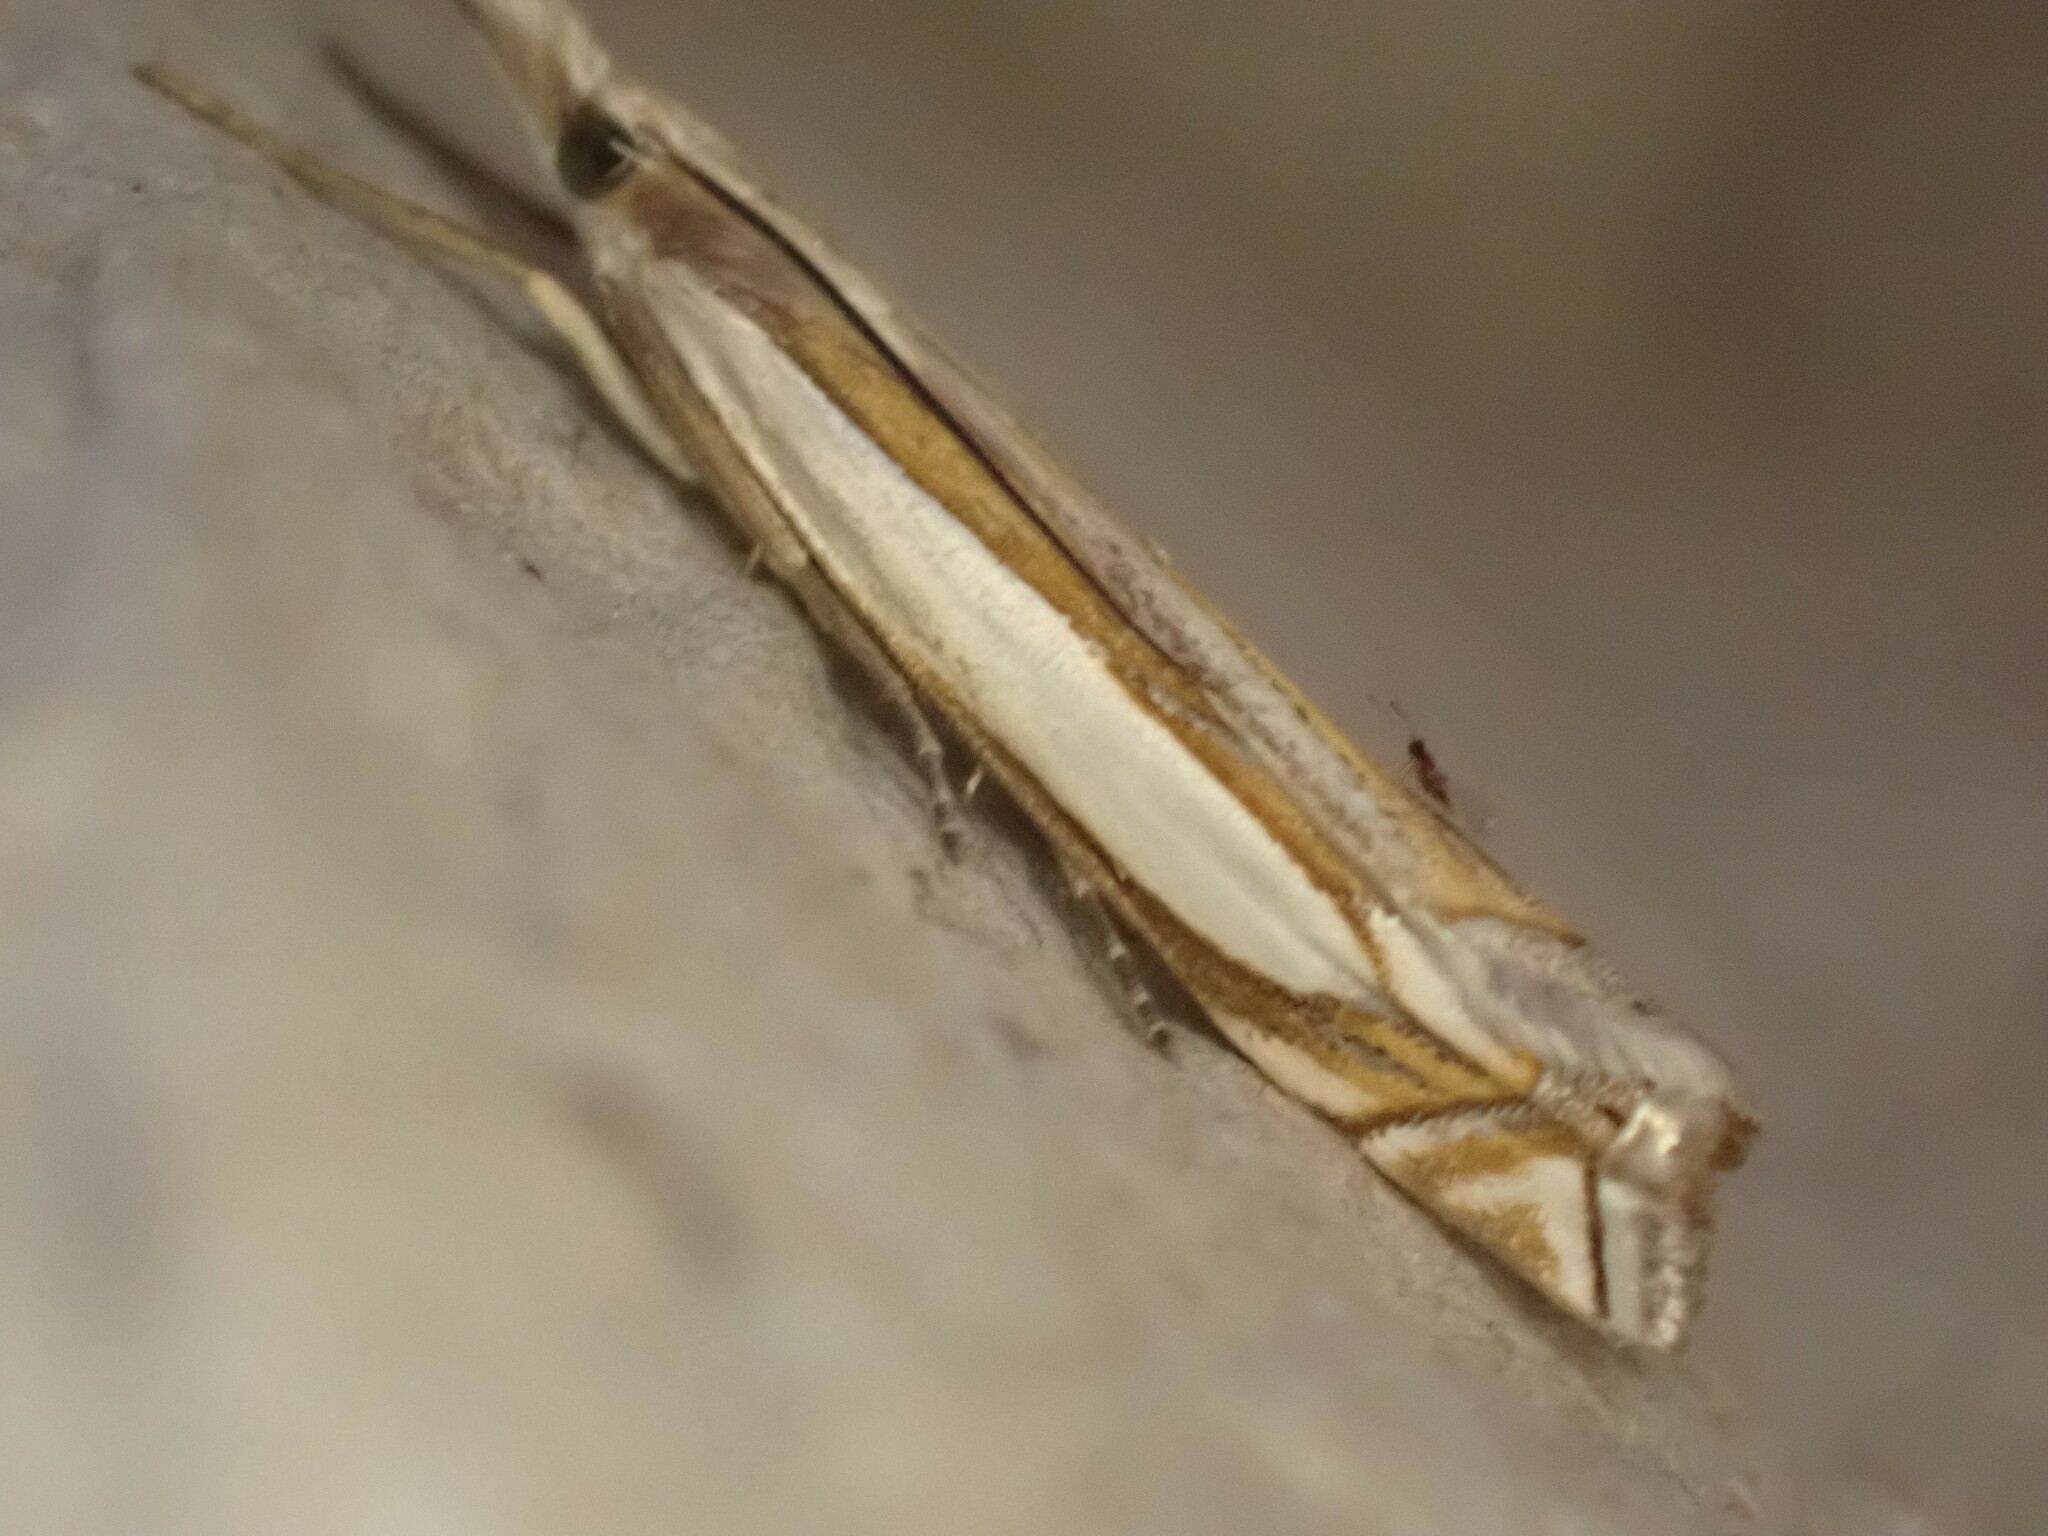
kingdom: Animalia
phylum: Arthropoda
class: Insecta
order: Lepidoptera
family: Crambidae
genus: Crambus
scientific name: Crambus pascuella
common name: Inlaid grass-veneer
